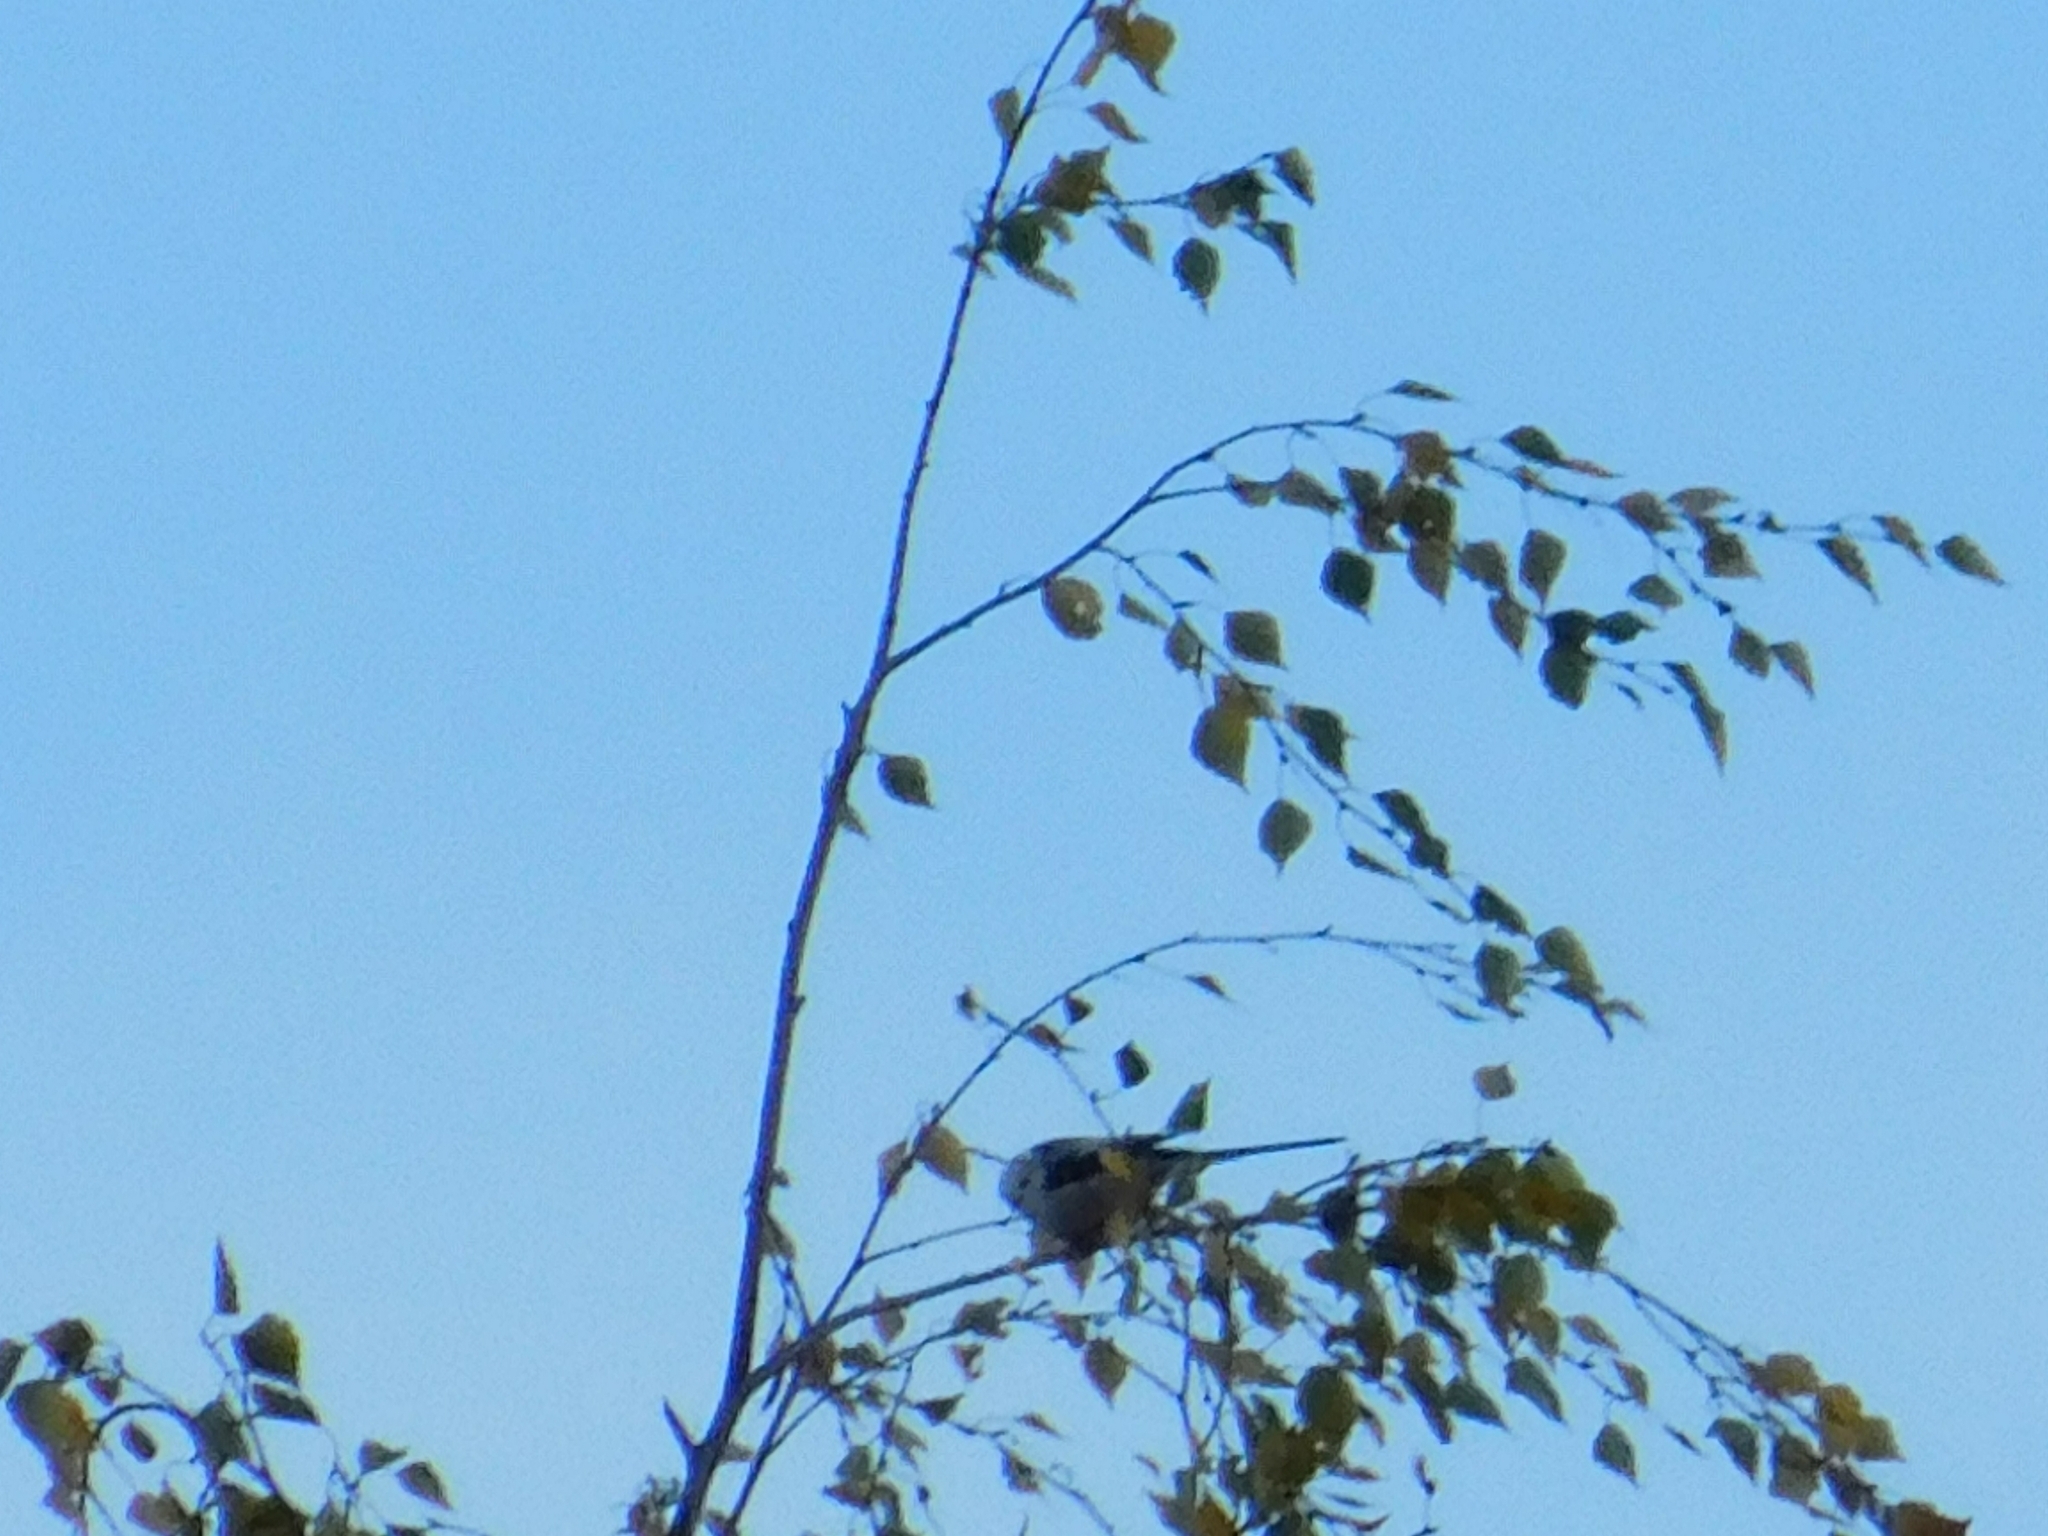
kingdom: Animalia
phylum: Chordata
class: Aves
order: Passeriformes
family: Aegithalidae
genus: Aegithalos
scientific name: Aegithalos caudatus
